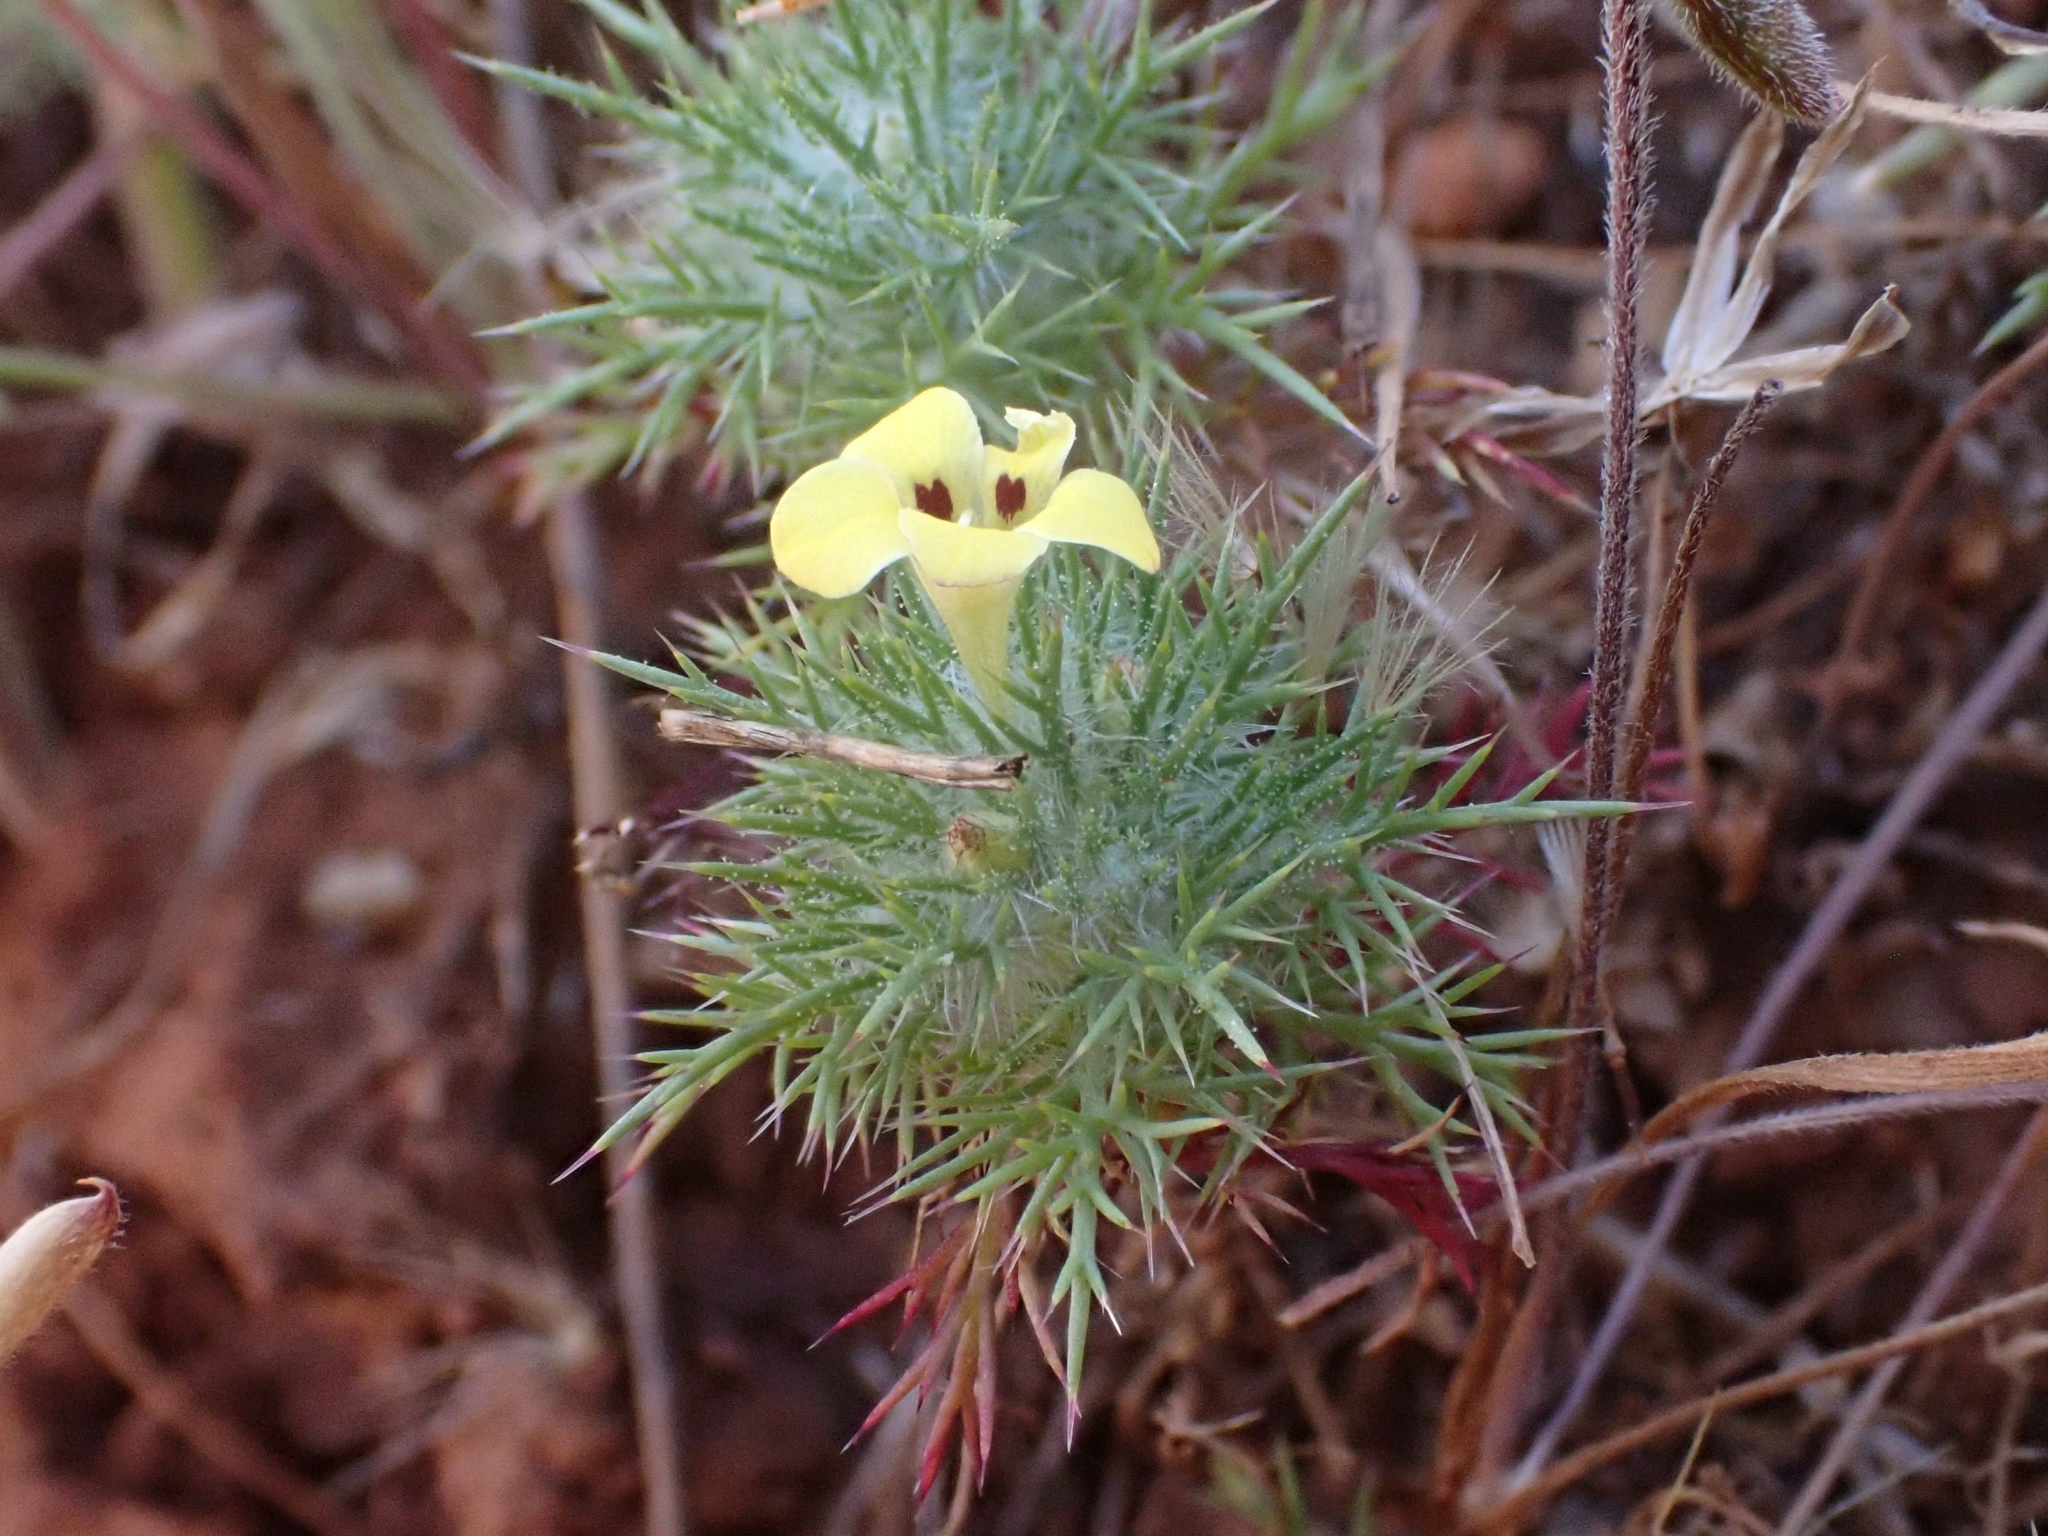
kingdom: Plantae
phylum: Tracheophyta
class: Magnoliopsida
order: Ericales
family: Polemoniaceae
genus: Navarretia
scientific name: Navarretia nigelliformis
